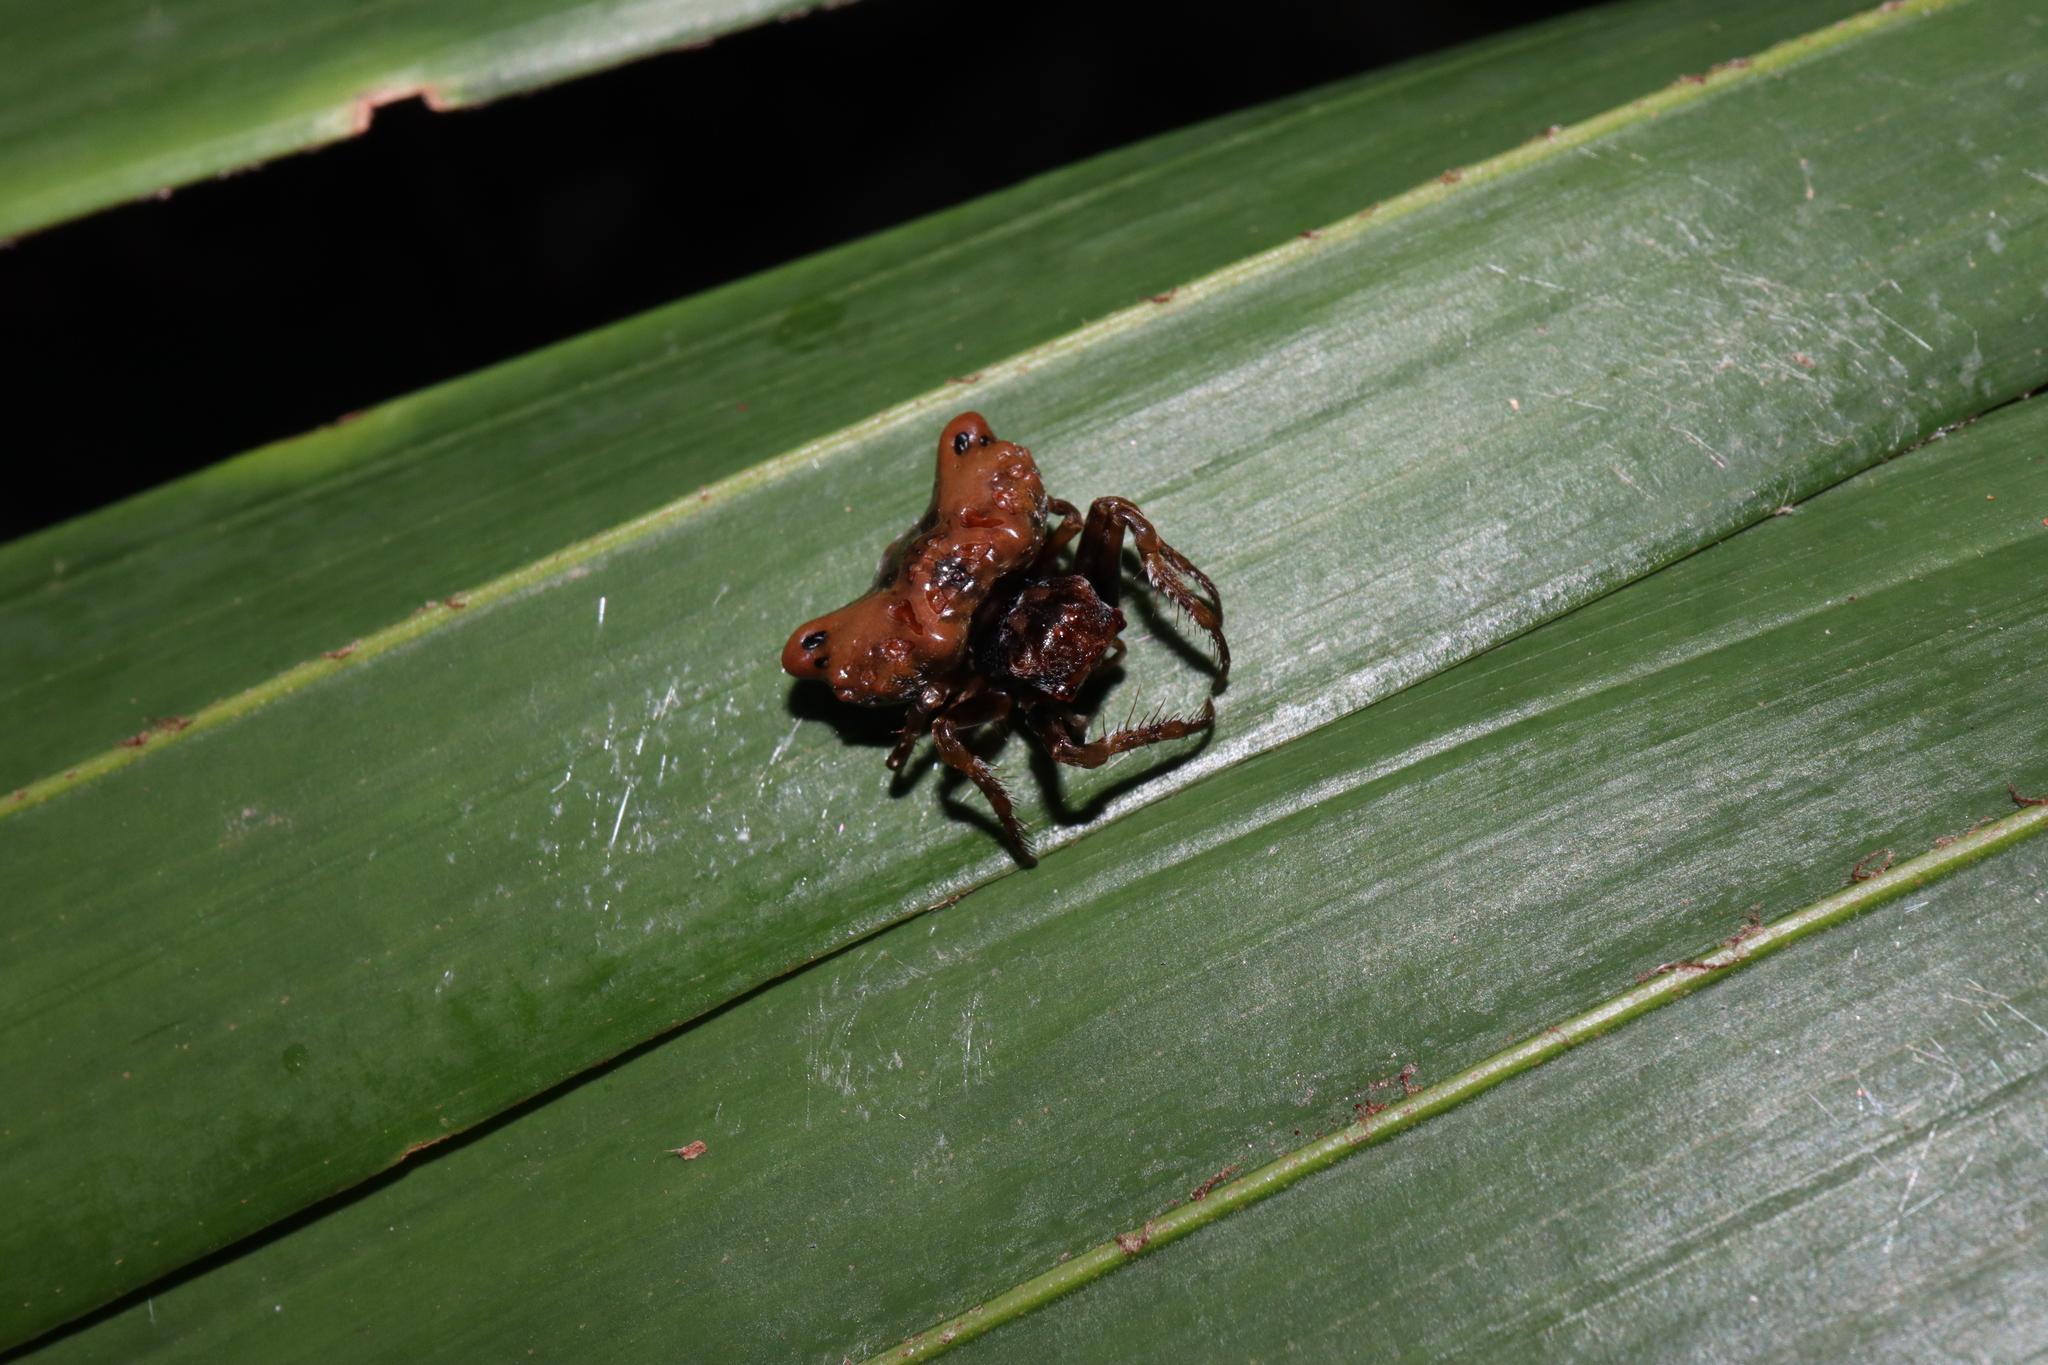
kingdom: Animalia
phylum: Arthropoda
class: Arachnida
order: Araneae
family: Arkyidae
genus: Arkys
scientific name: Arkys curtulus
